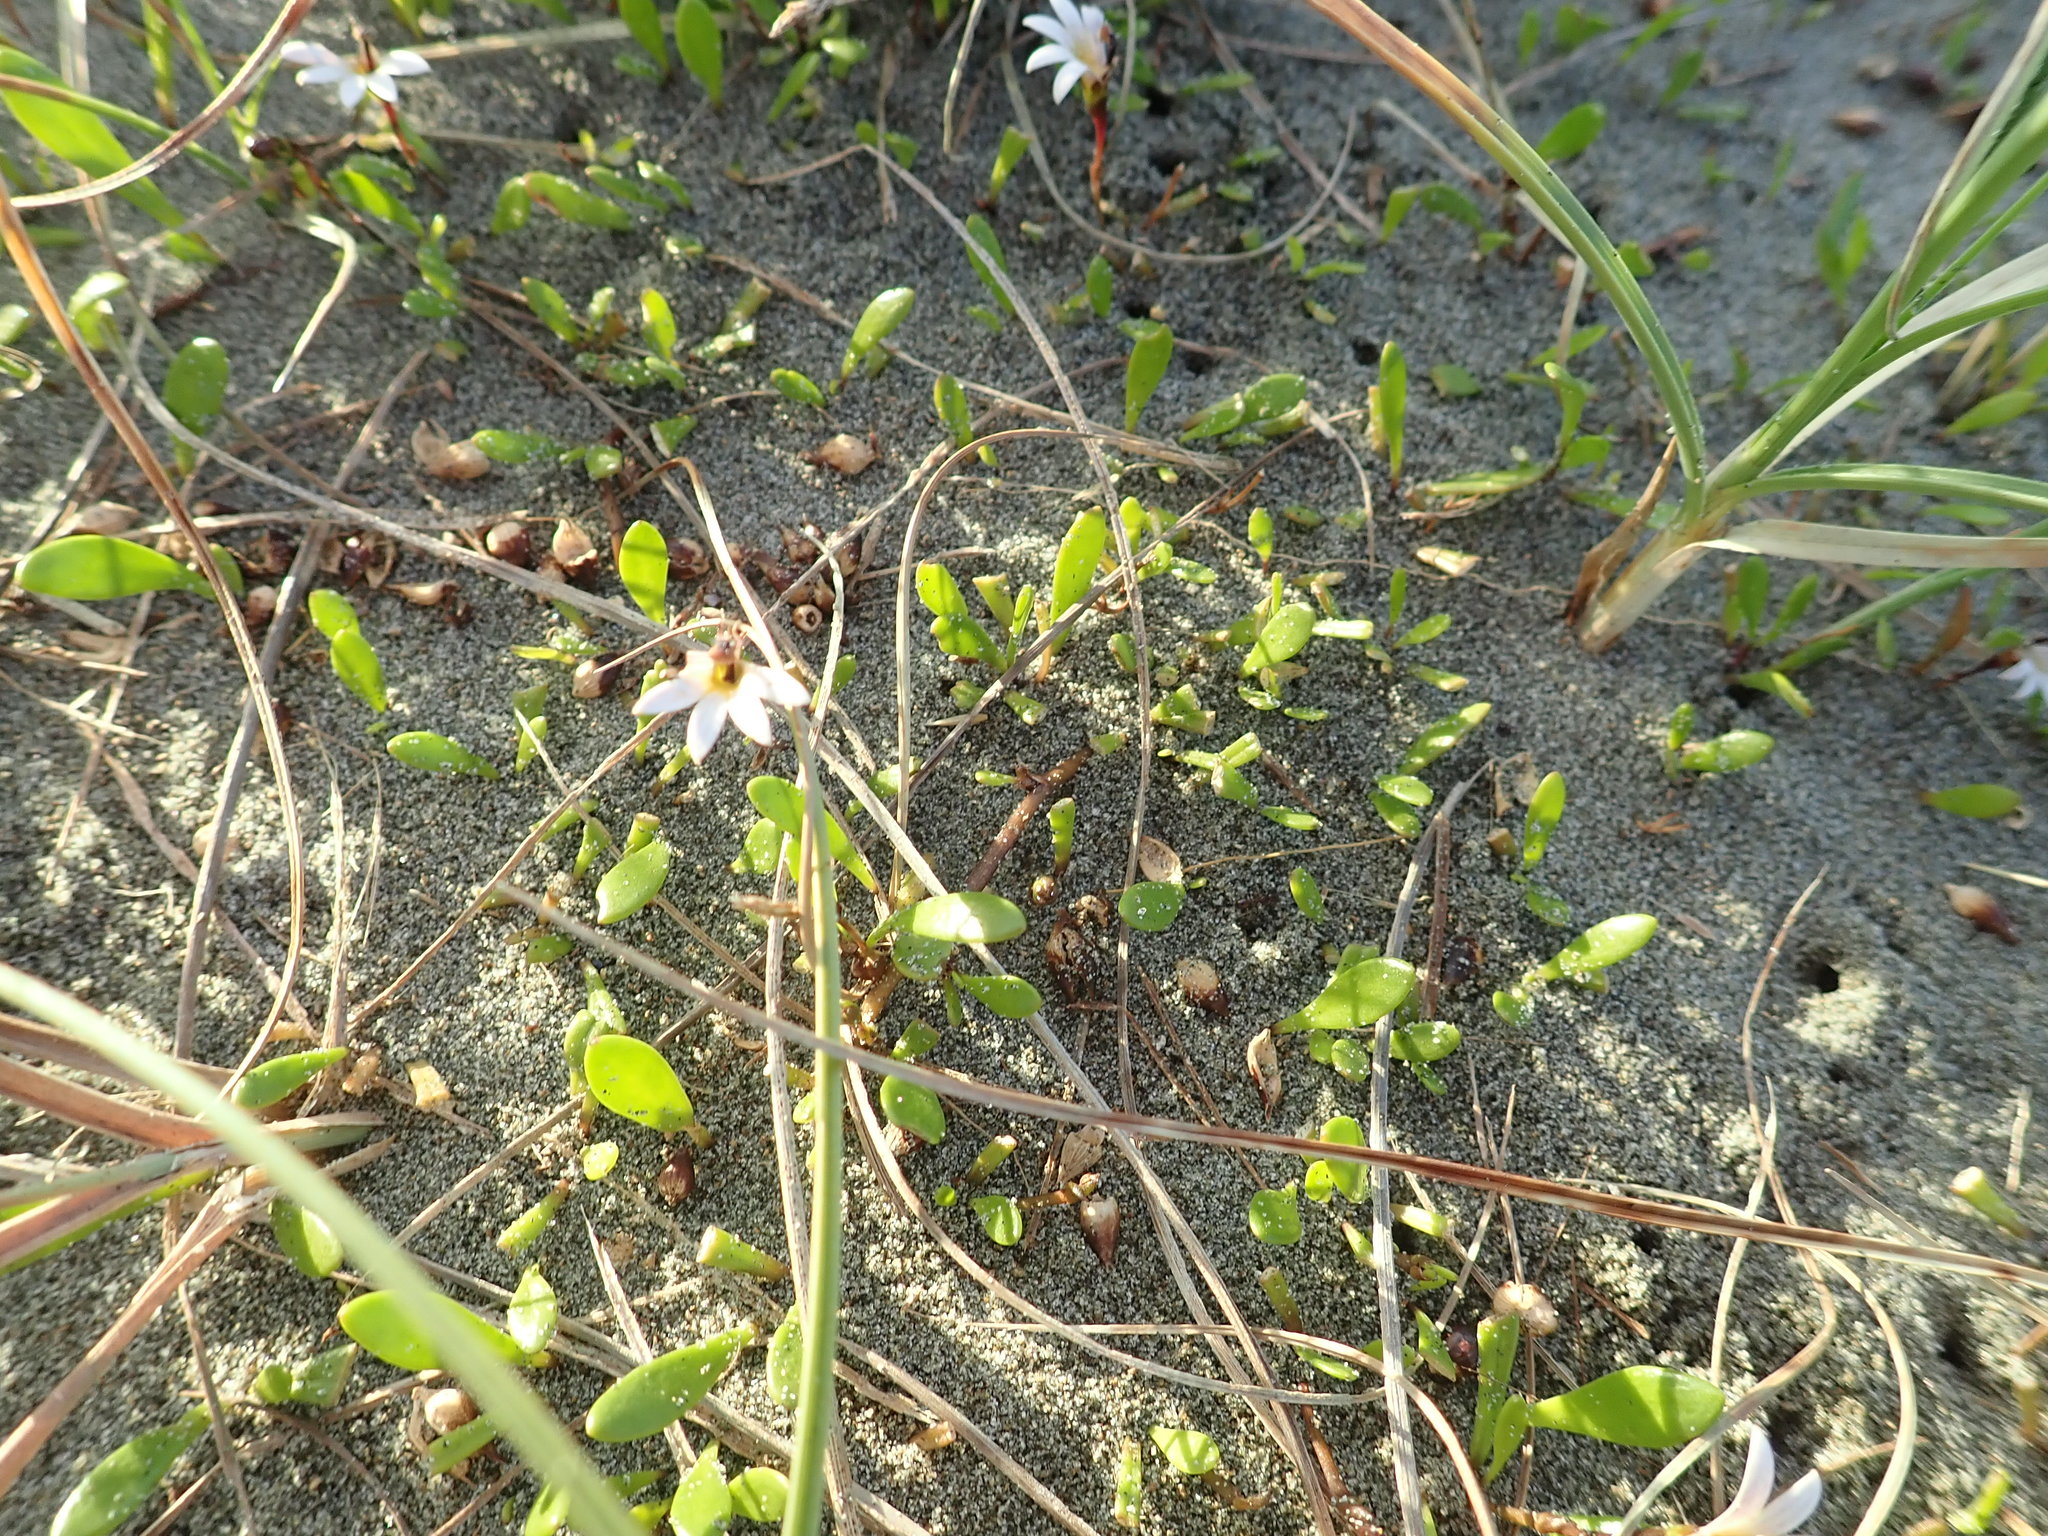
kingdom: Plantae
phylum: Tracheophyta
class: Magnoliopsida
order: Asterales
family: Goodeniaceae
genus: Goodenia
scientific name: Goodenia radicans
